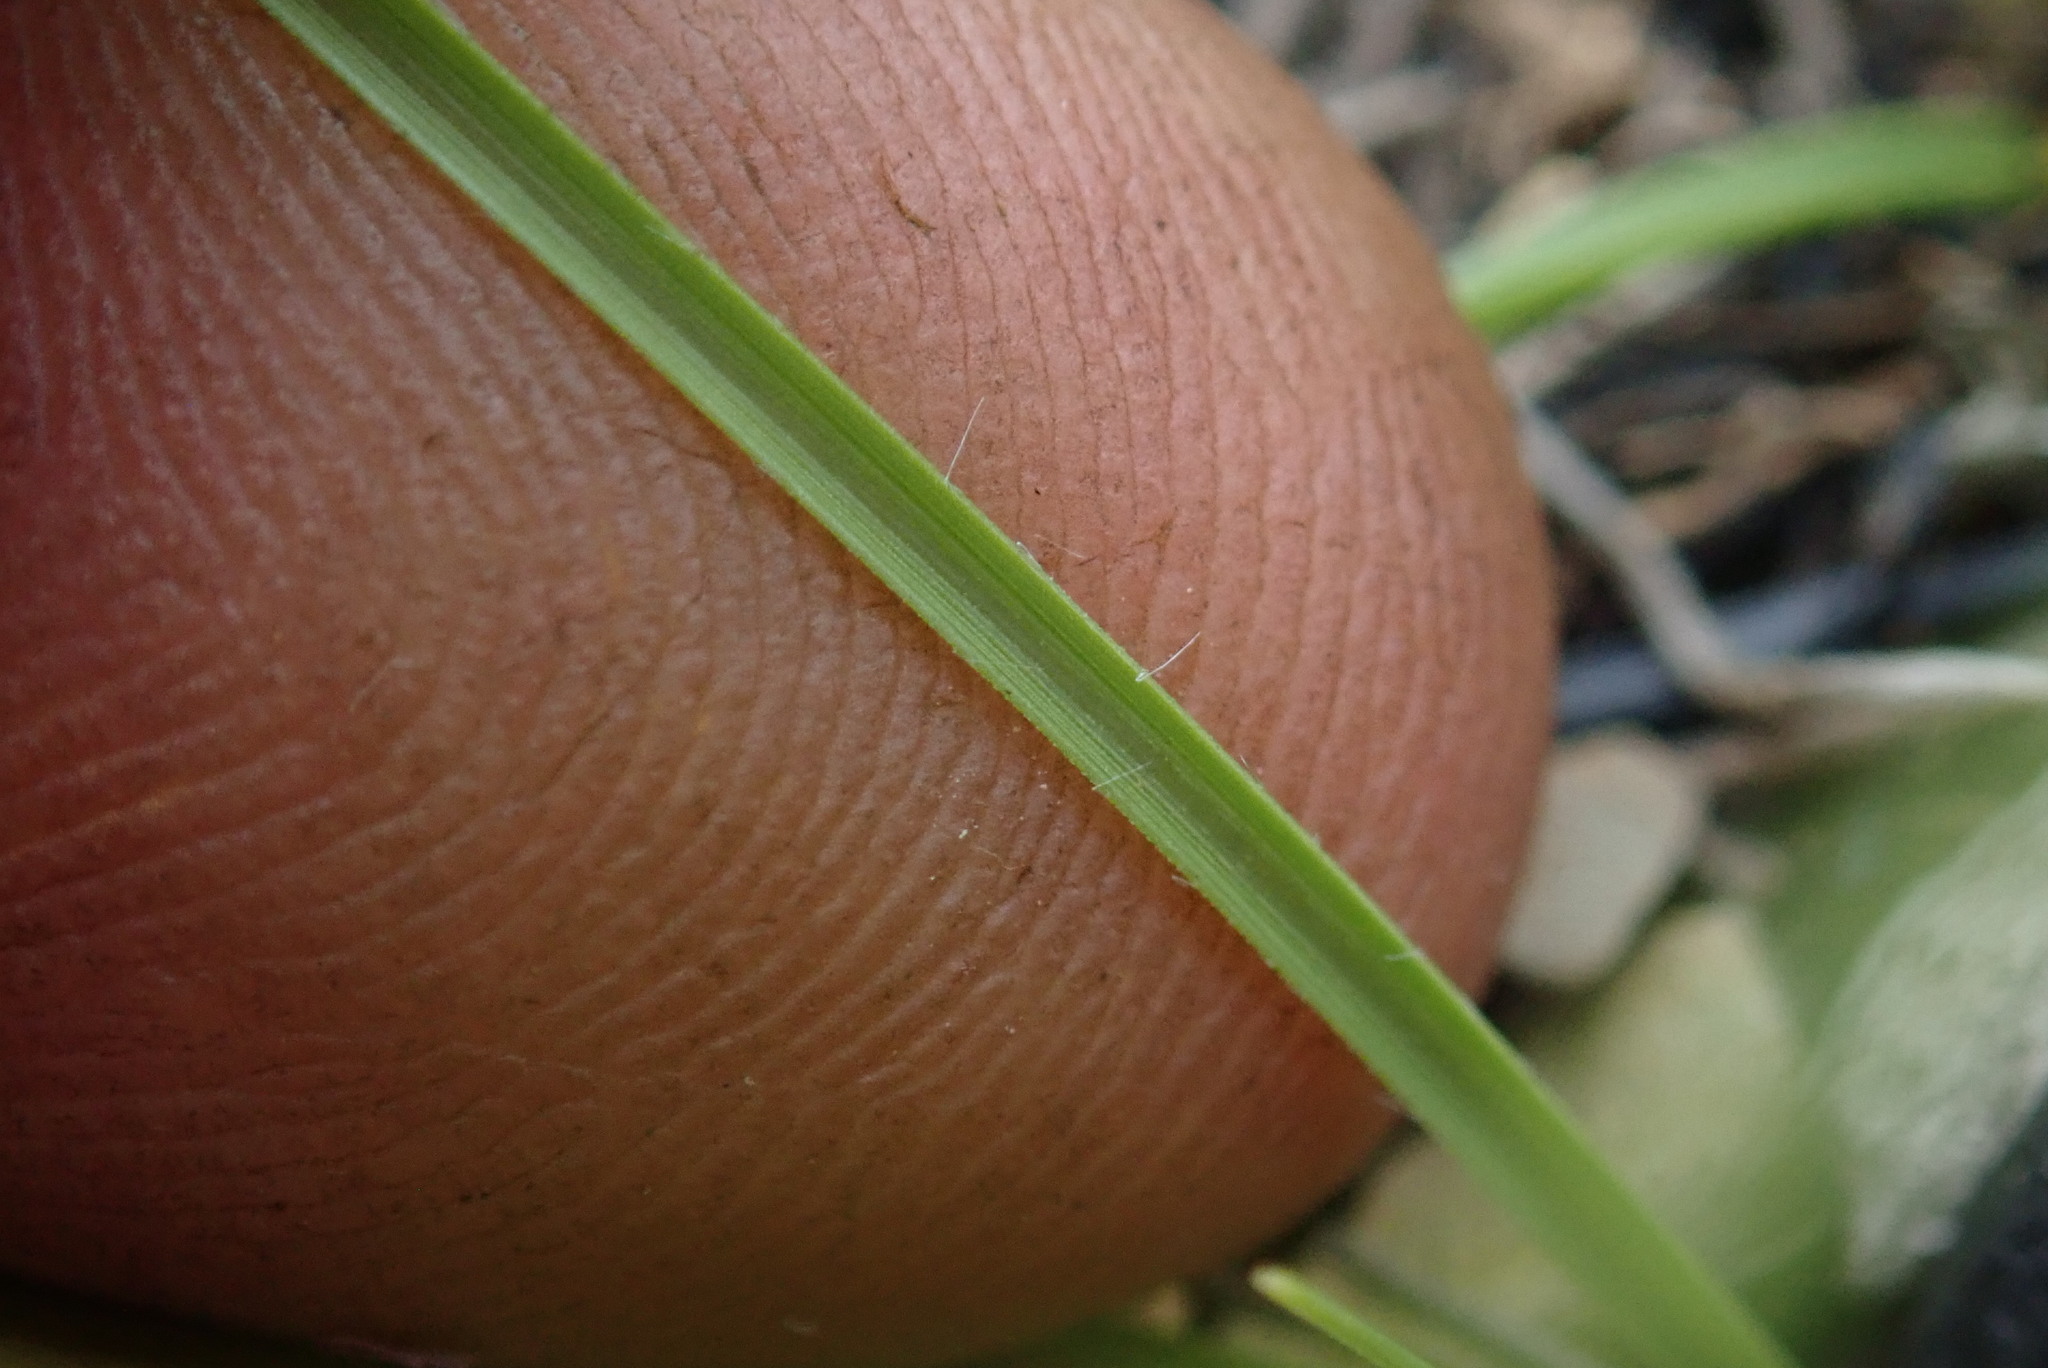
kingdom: Plantae
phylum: Tracheophyta
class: Liliopsida
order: Poales
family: Poaceae
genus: Sporobolus
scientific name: Sporobolus centrifugus
